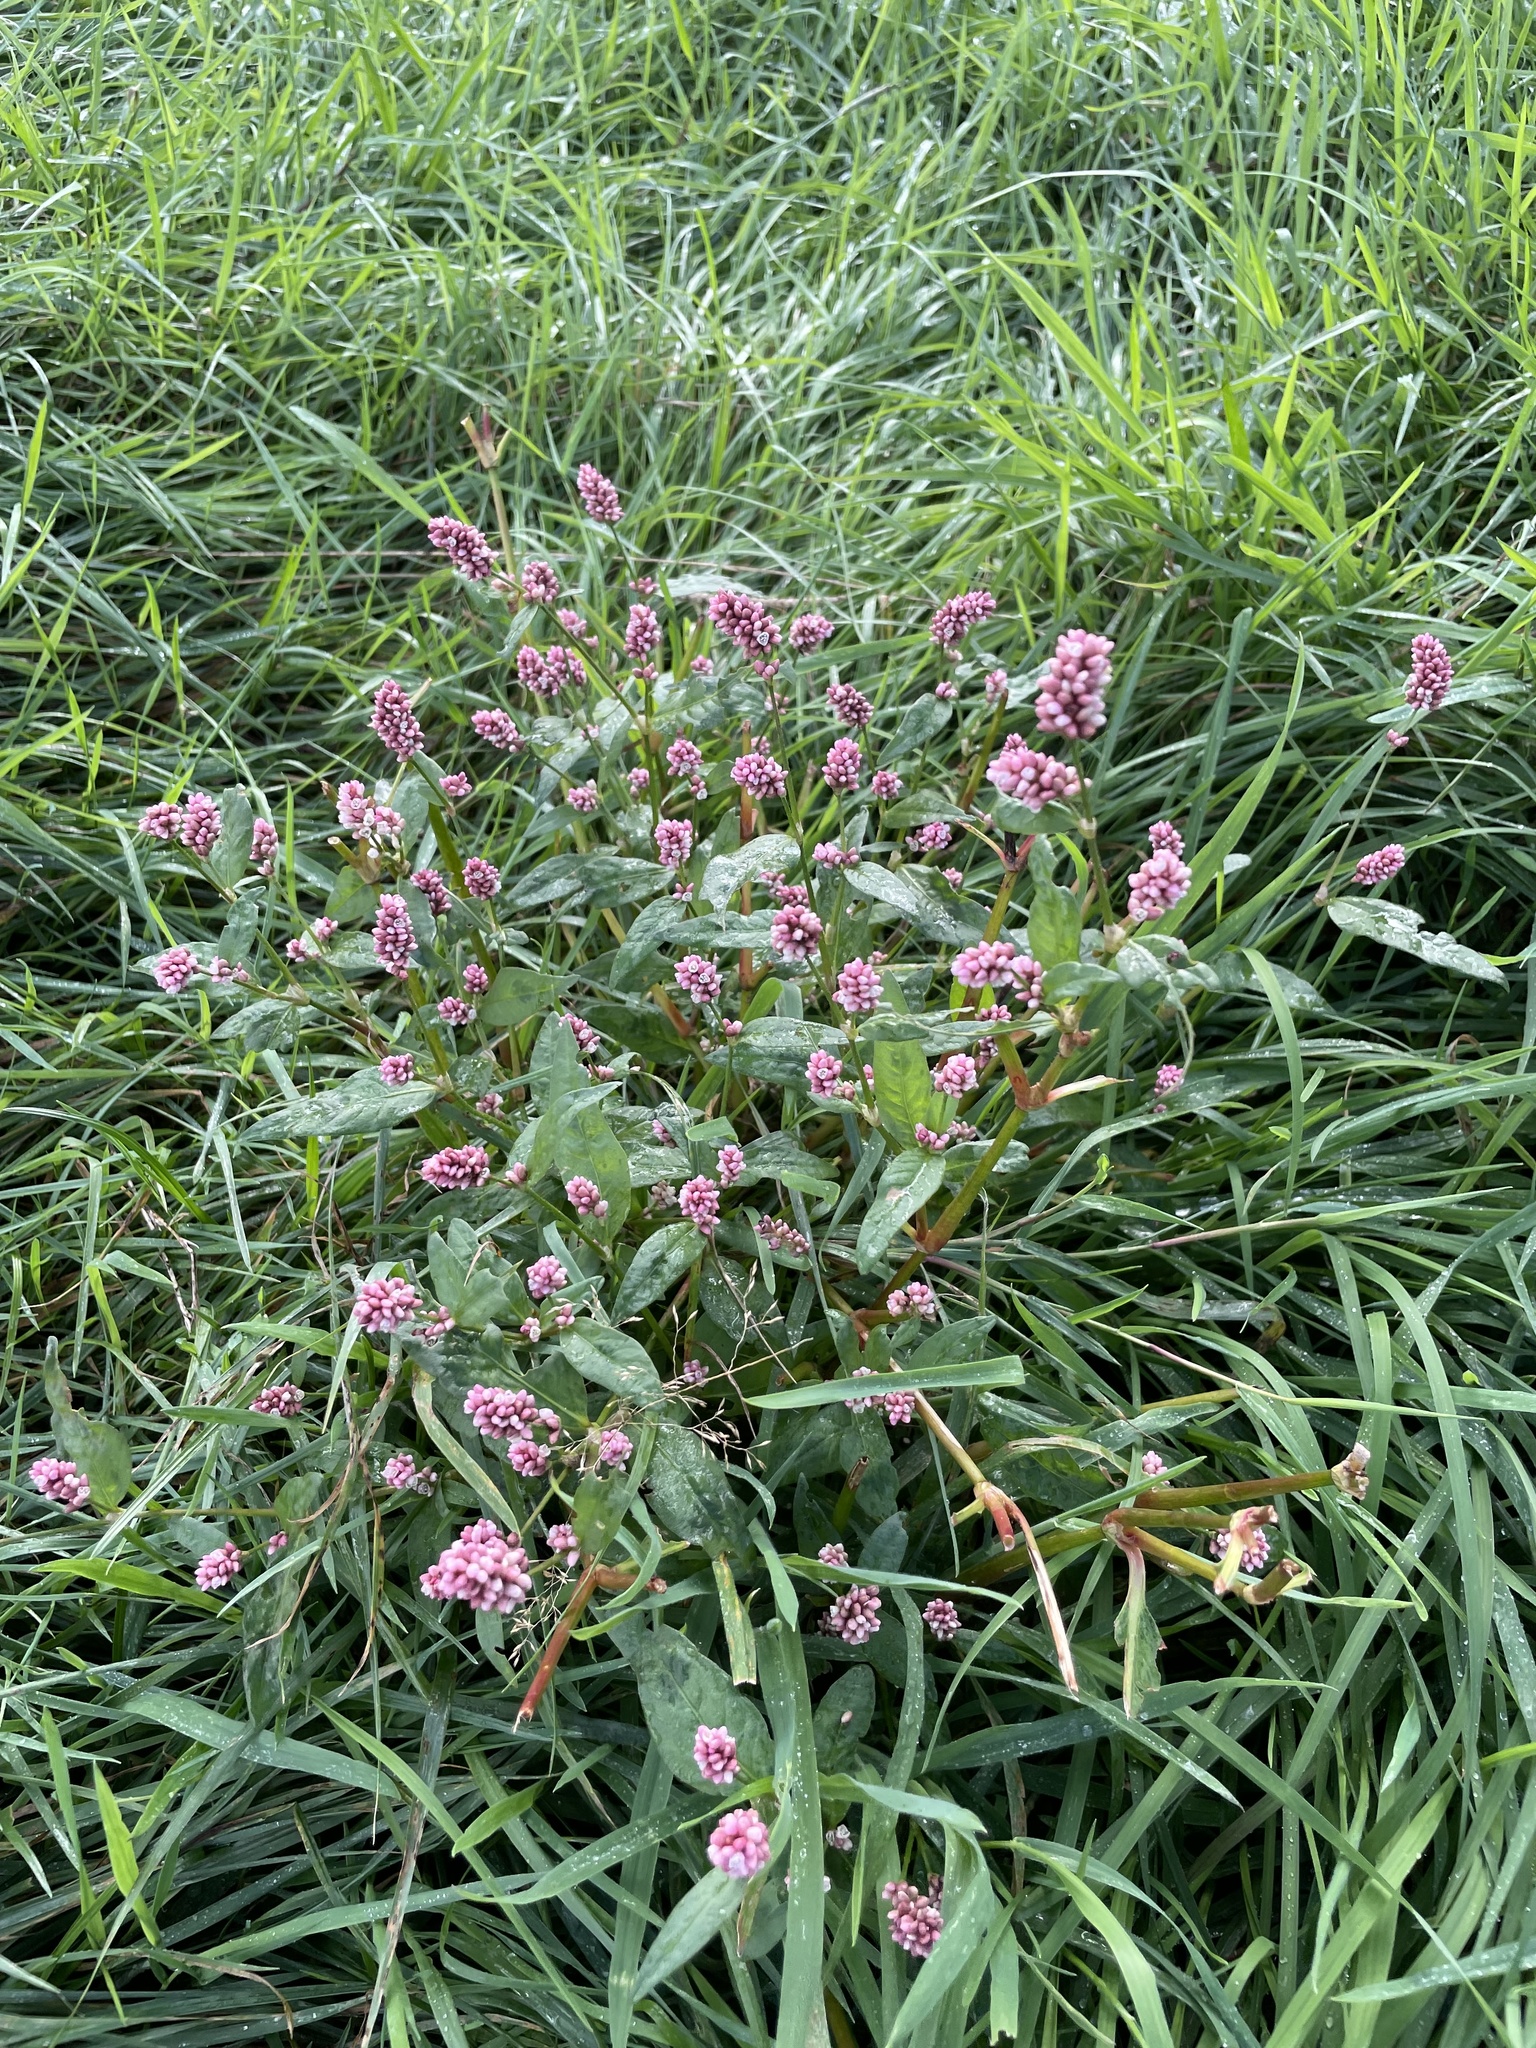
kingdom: Plantae
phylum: Tracheophyta
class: Magnoliopsida
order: Caryophyllales
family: Polygonaceae
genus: Persicaria
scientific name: Persicaria maculosa
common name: Redshank
